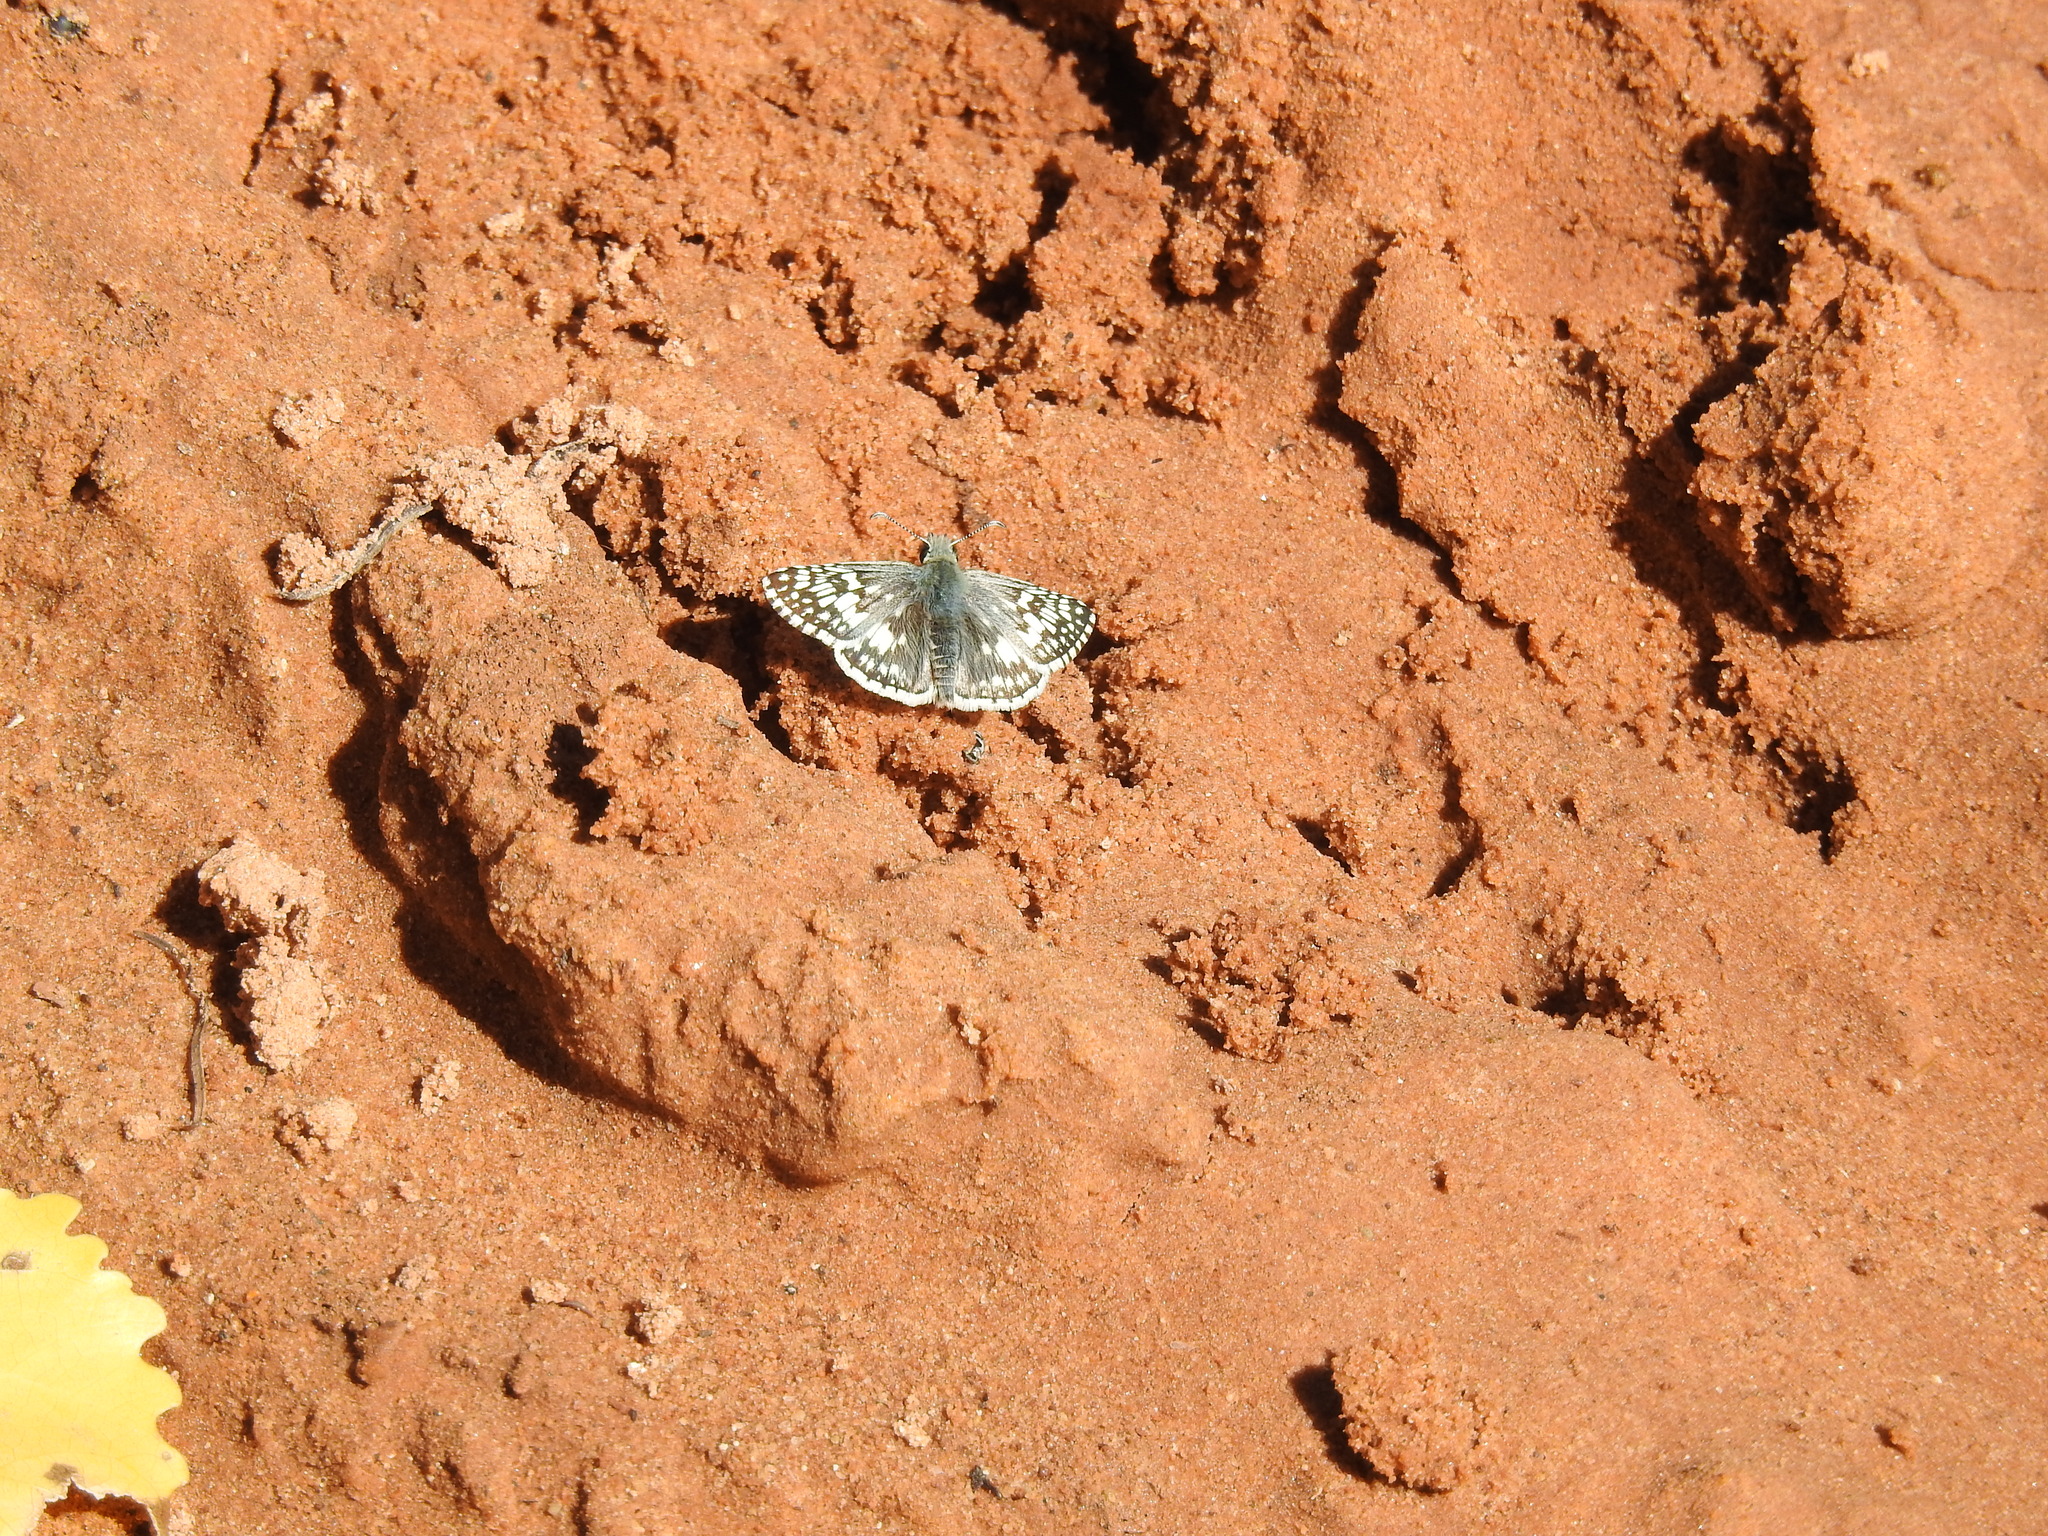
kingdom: Animalia
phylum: Arthropoda
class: Insecta
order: Lepidoptera
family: Hesperiidae
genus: Burnsius
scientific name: Burnsius communis
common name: Common checkered-skipper
